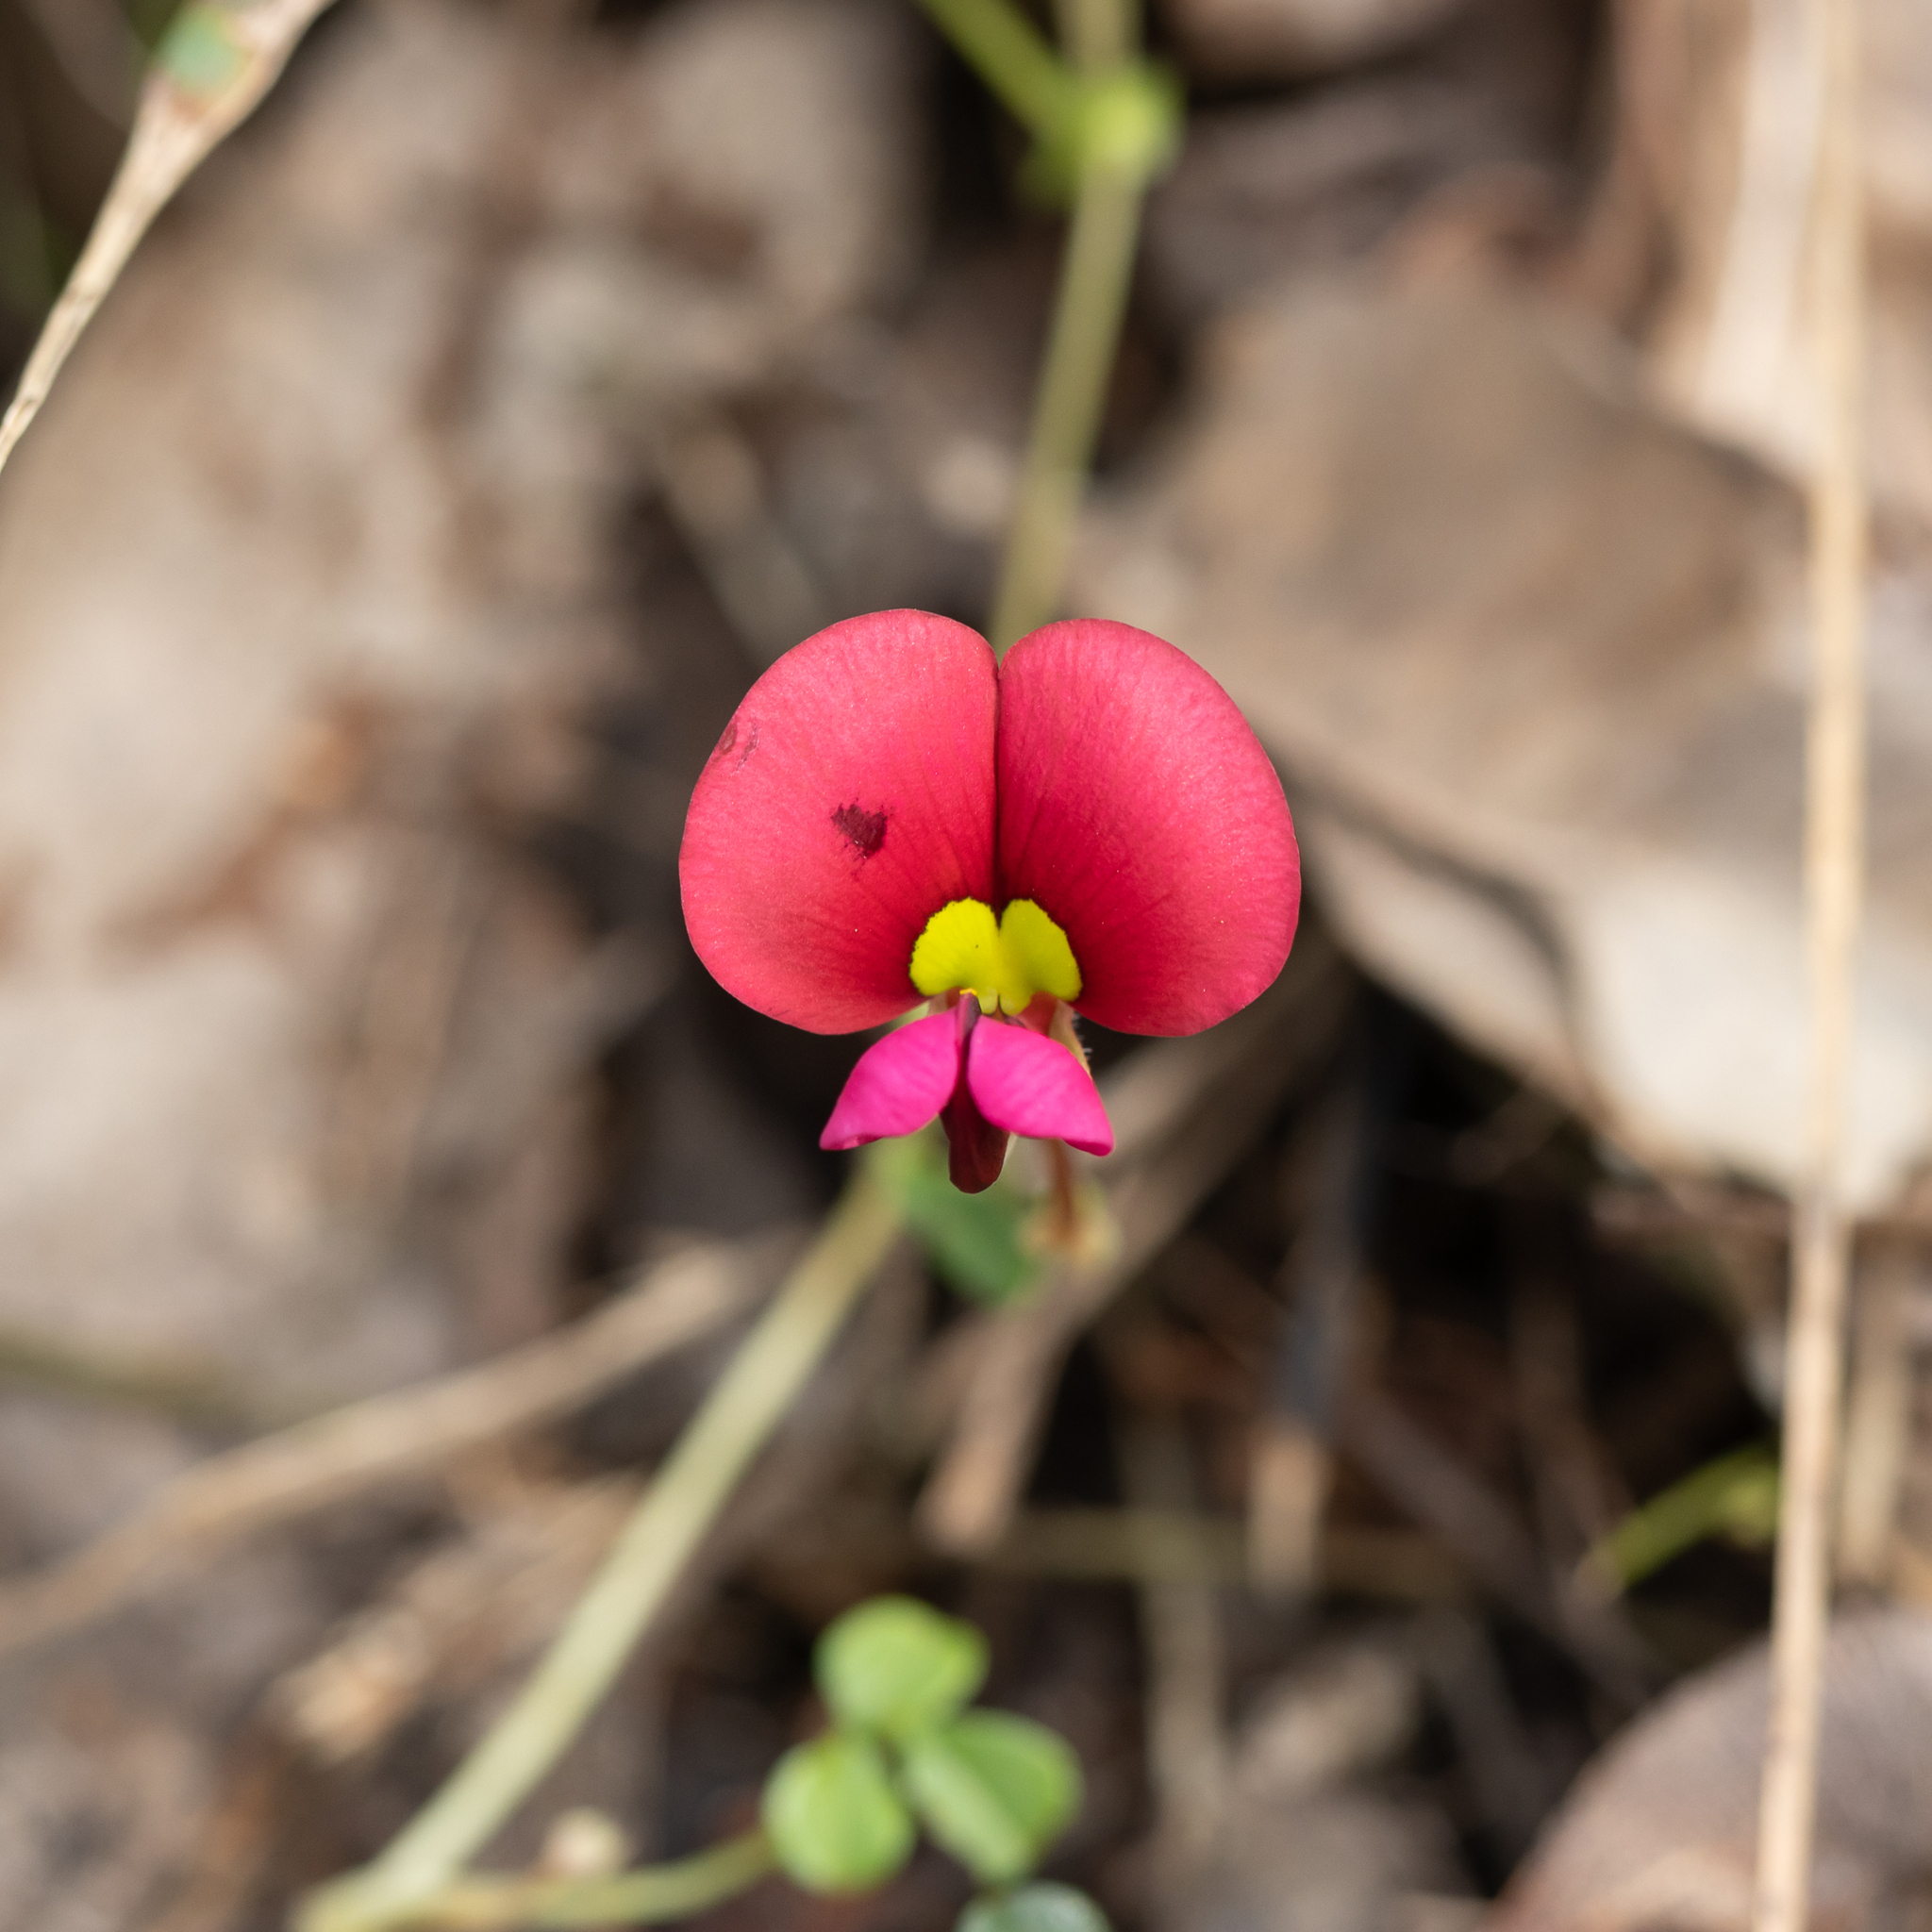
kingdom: Plantae
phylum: Tracheophyta
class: Magnoliopsida
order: Fabales
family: Fabaceae
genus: Kennedia
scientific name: Kennedia carinata
